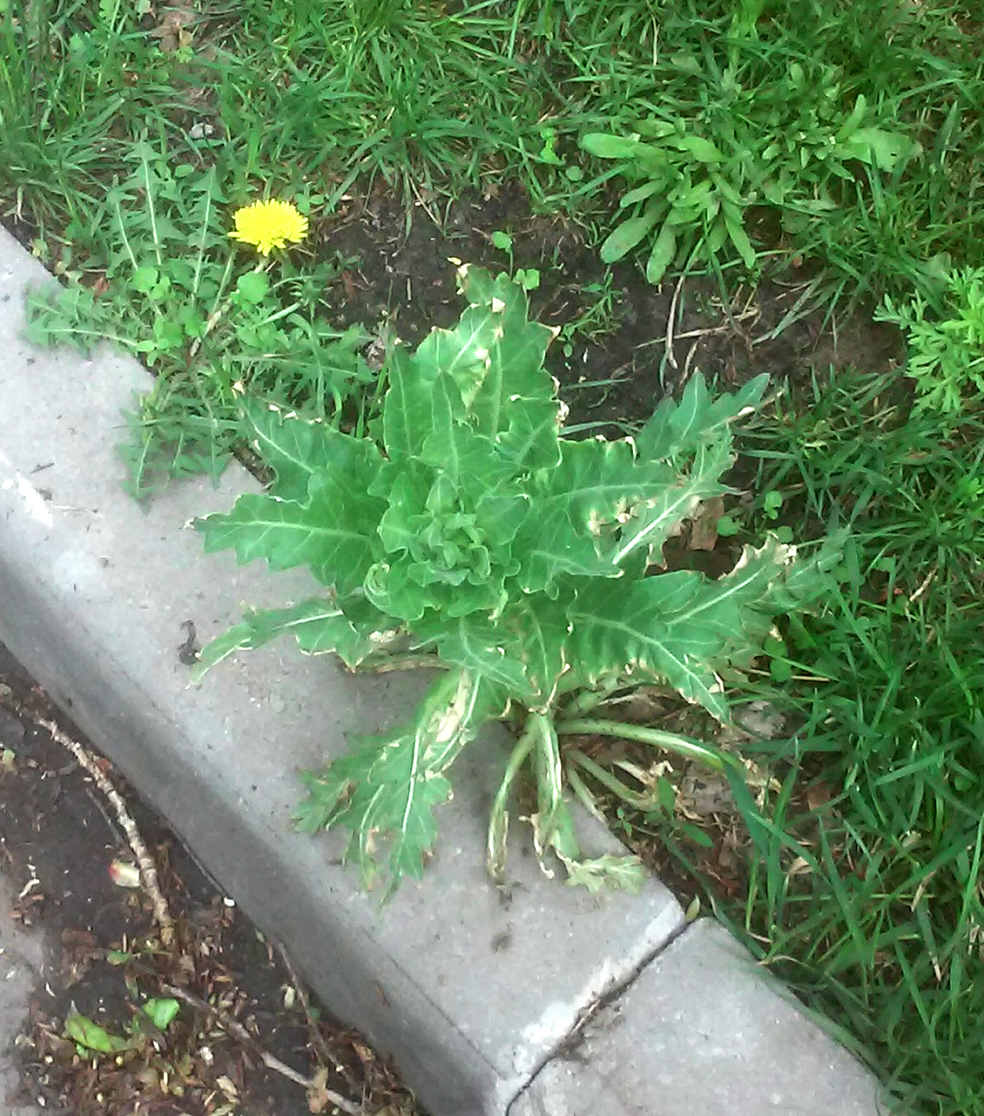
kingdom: Plantae
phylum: Tracheophyta
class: Magnoliopsida
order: Solanales
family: Solanaceae
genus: Hyoscyamus
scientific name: Hyoscyamus niger
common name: Henbane
